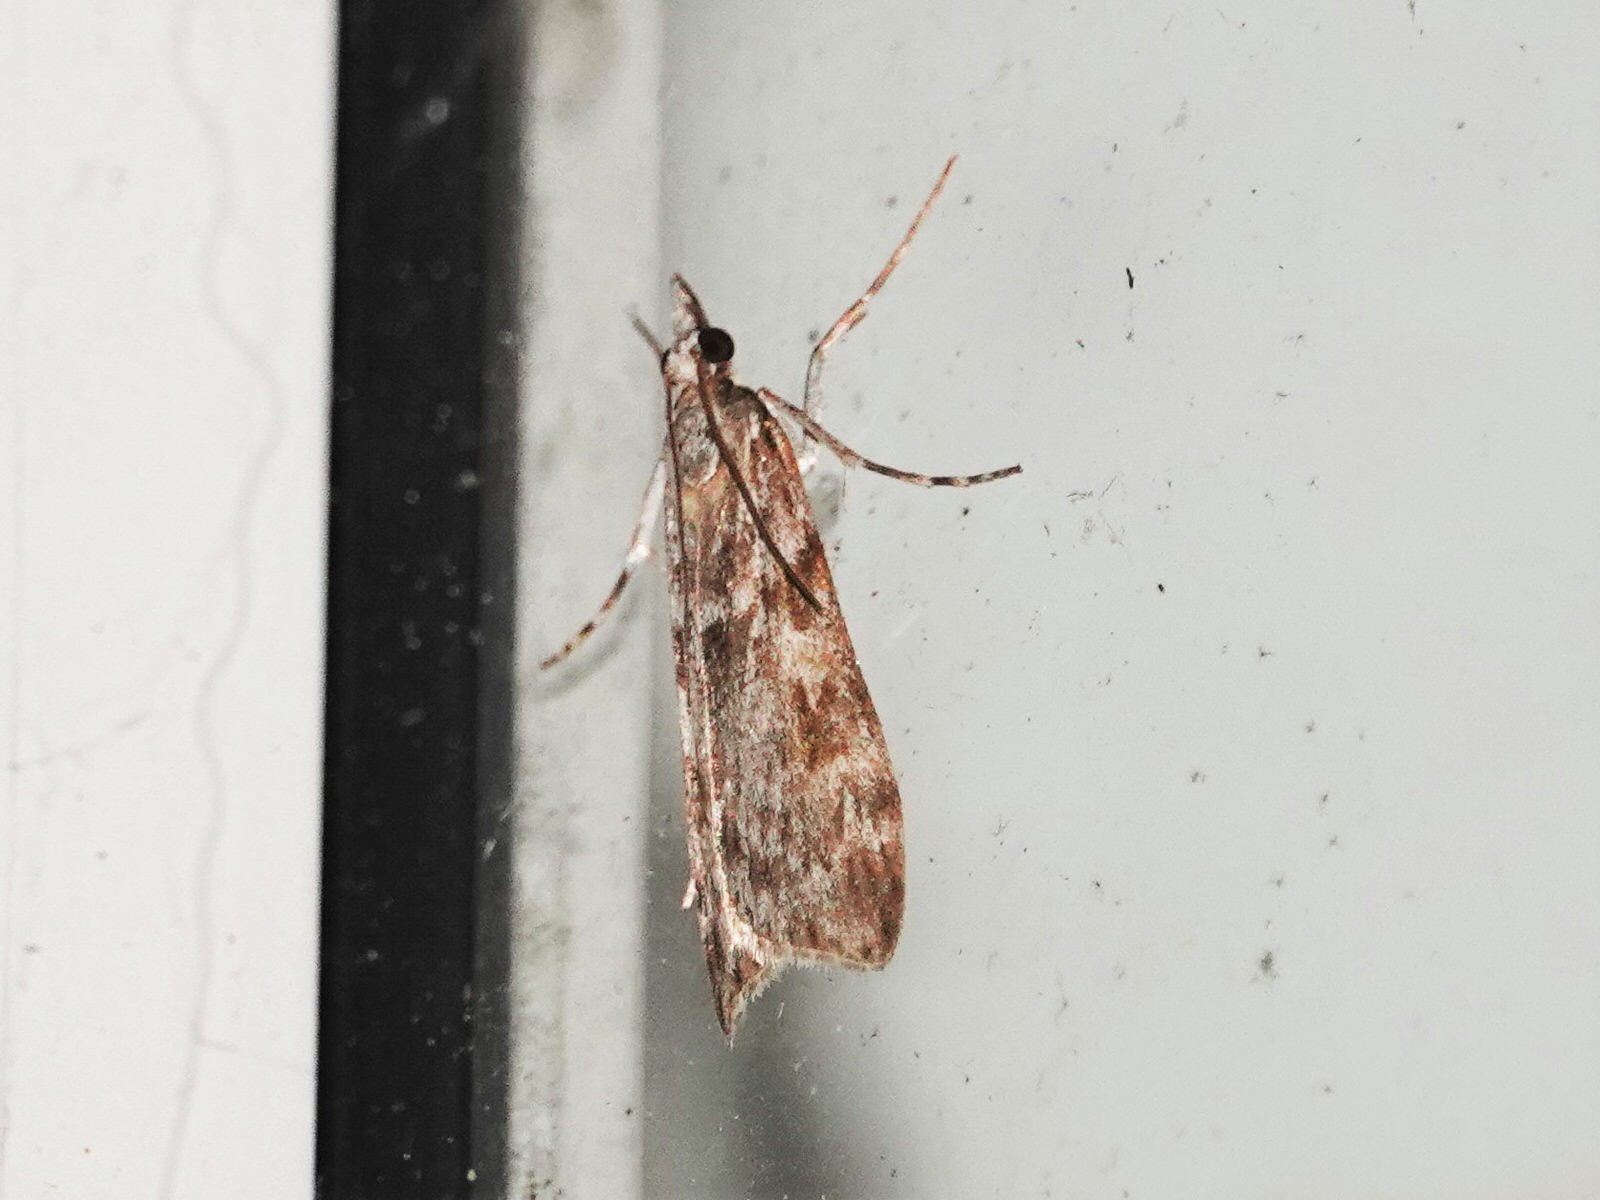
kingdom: Animalia
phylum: Arthropoda
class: Insecta
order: Lepidoptera
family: Crambidae
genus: Scoparia
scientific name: Scoparia halopis
